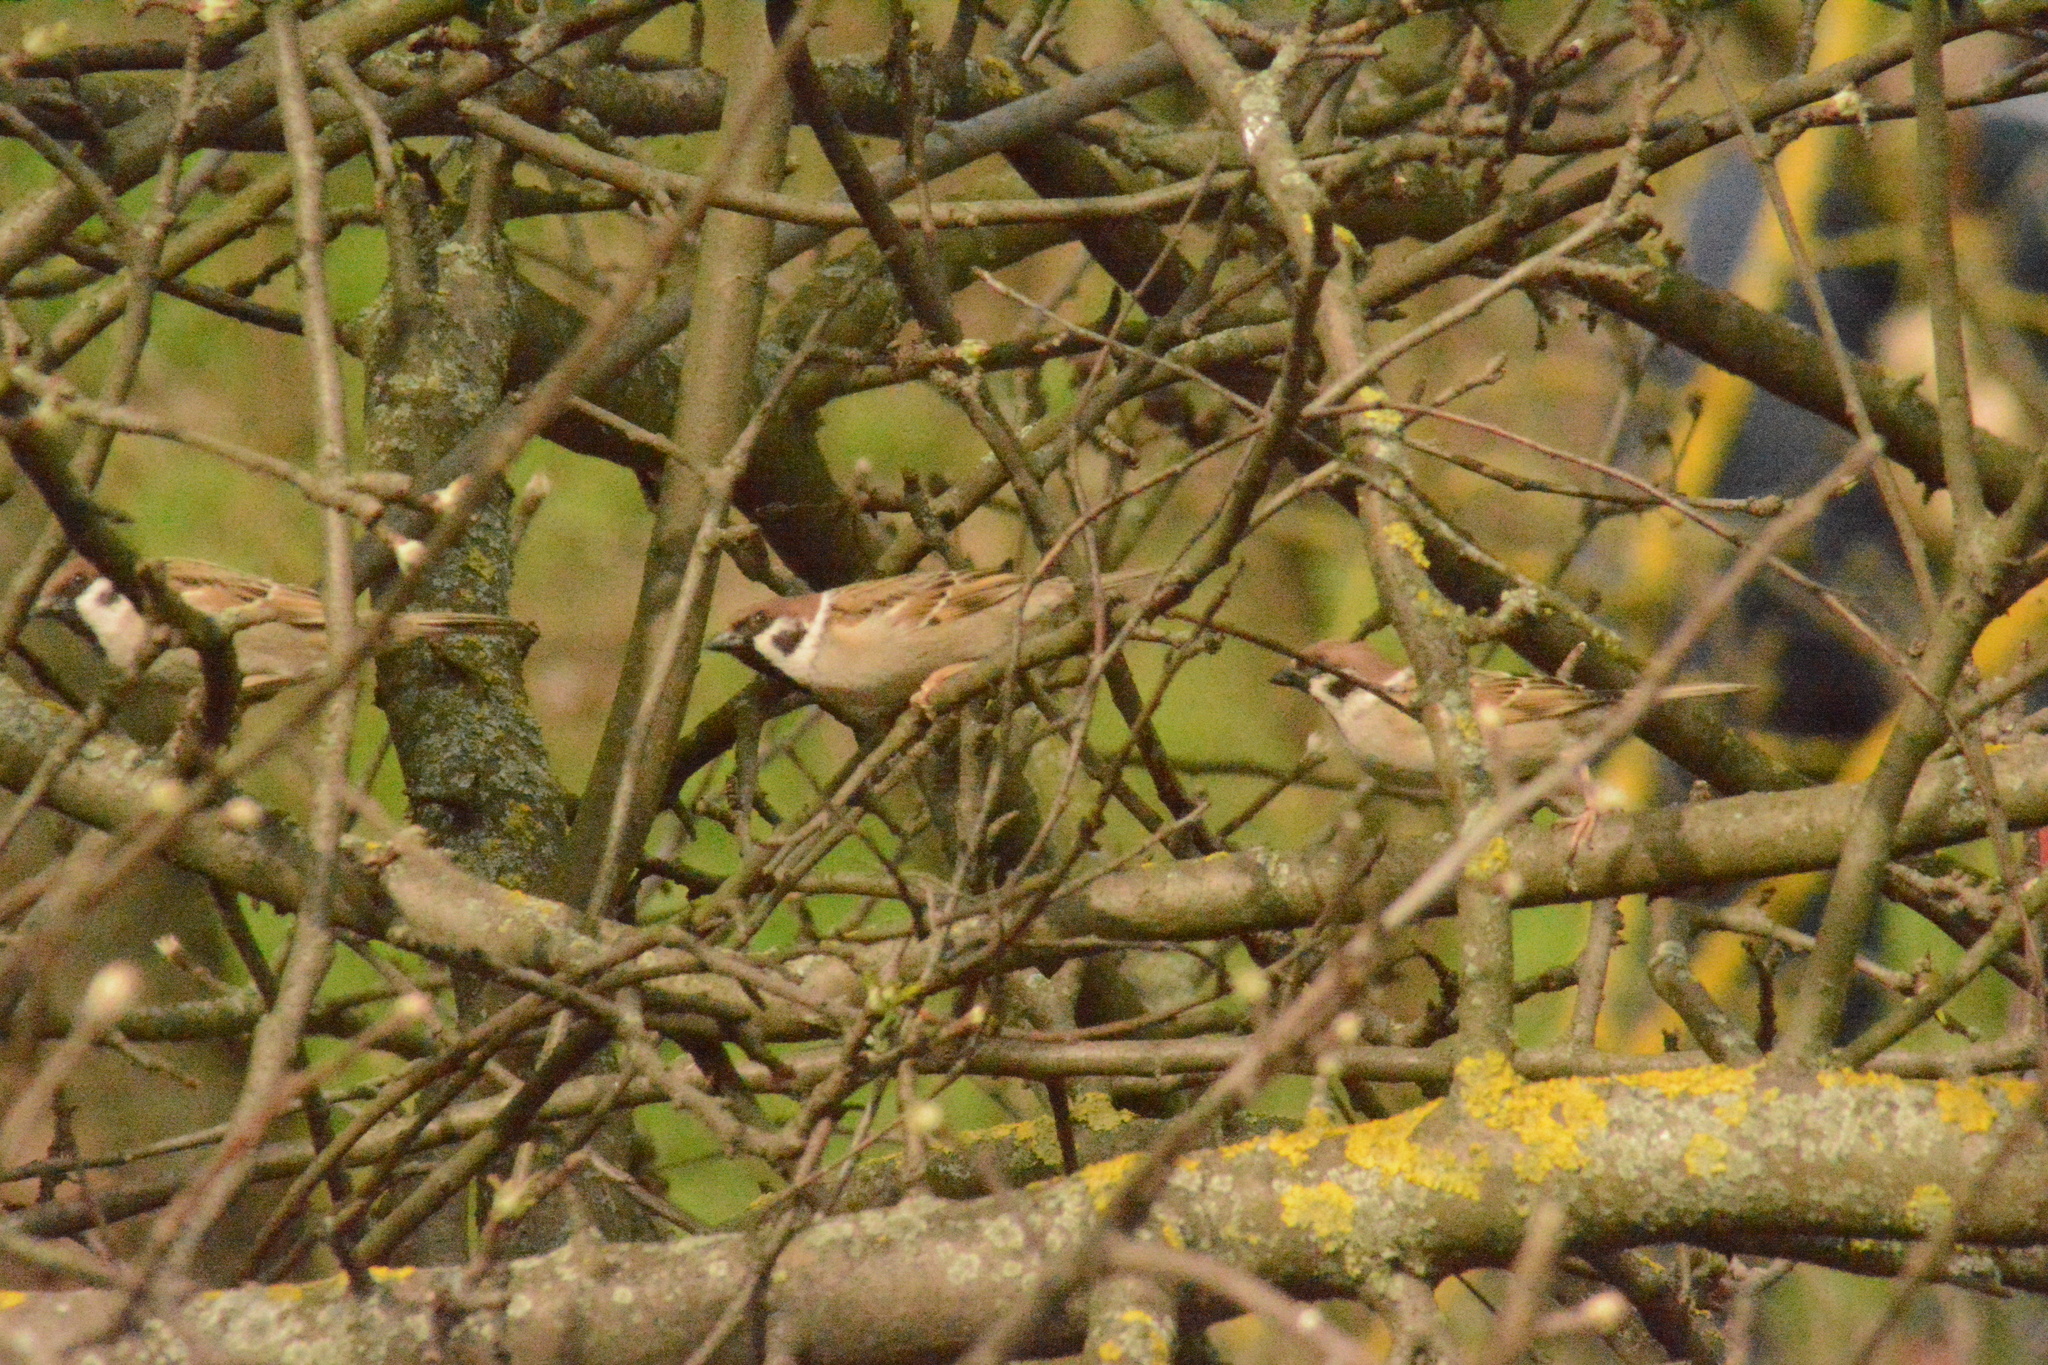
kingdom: Animalia
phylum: Chordata
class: Aves
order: Passeriformes
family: Passeridae
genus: Passer
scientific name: Passer montanus
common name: Eurasian tree sparrow
